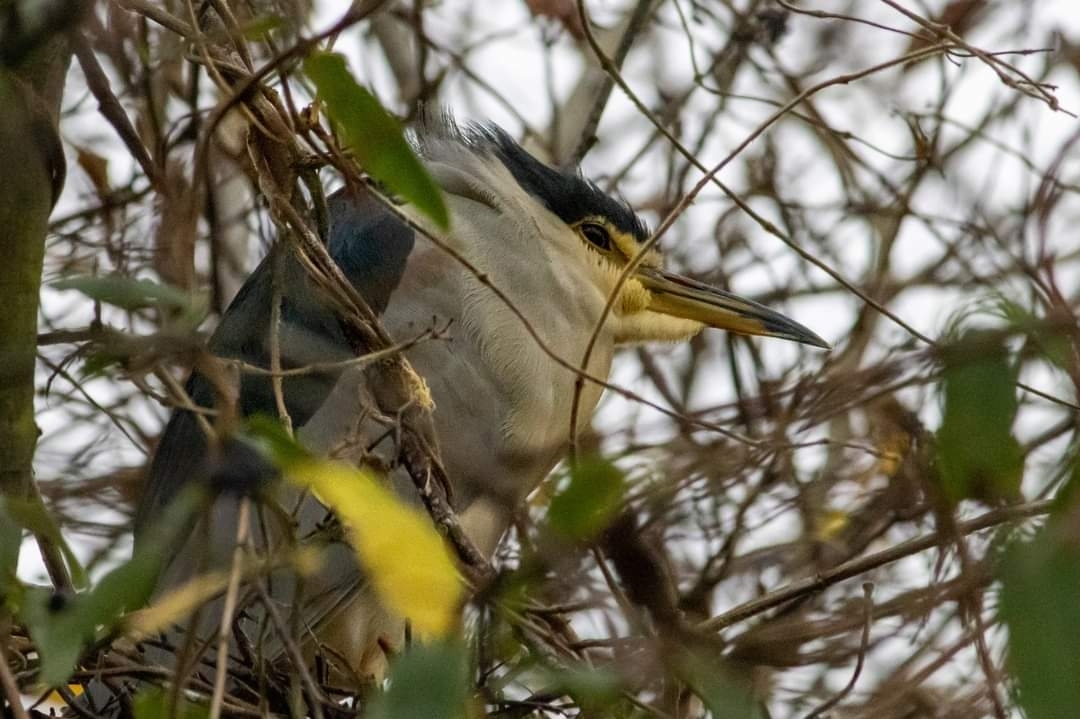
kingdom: Animalia
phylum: Chordata
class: Aves
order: Pelecaniformes
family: Ardeidae
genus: Nycticorax
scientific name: Nycticorax nycticorax
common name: Black-crowned night heron
